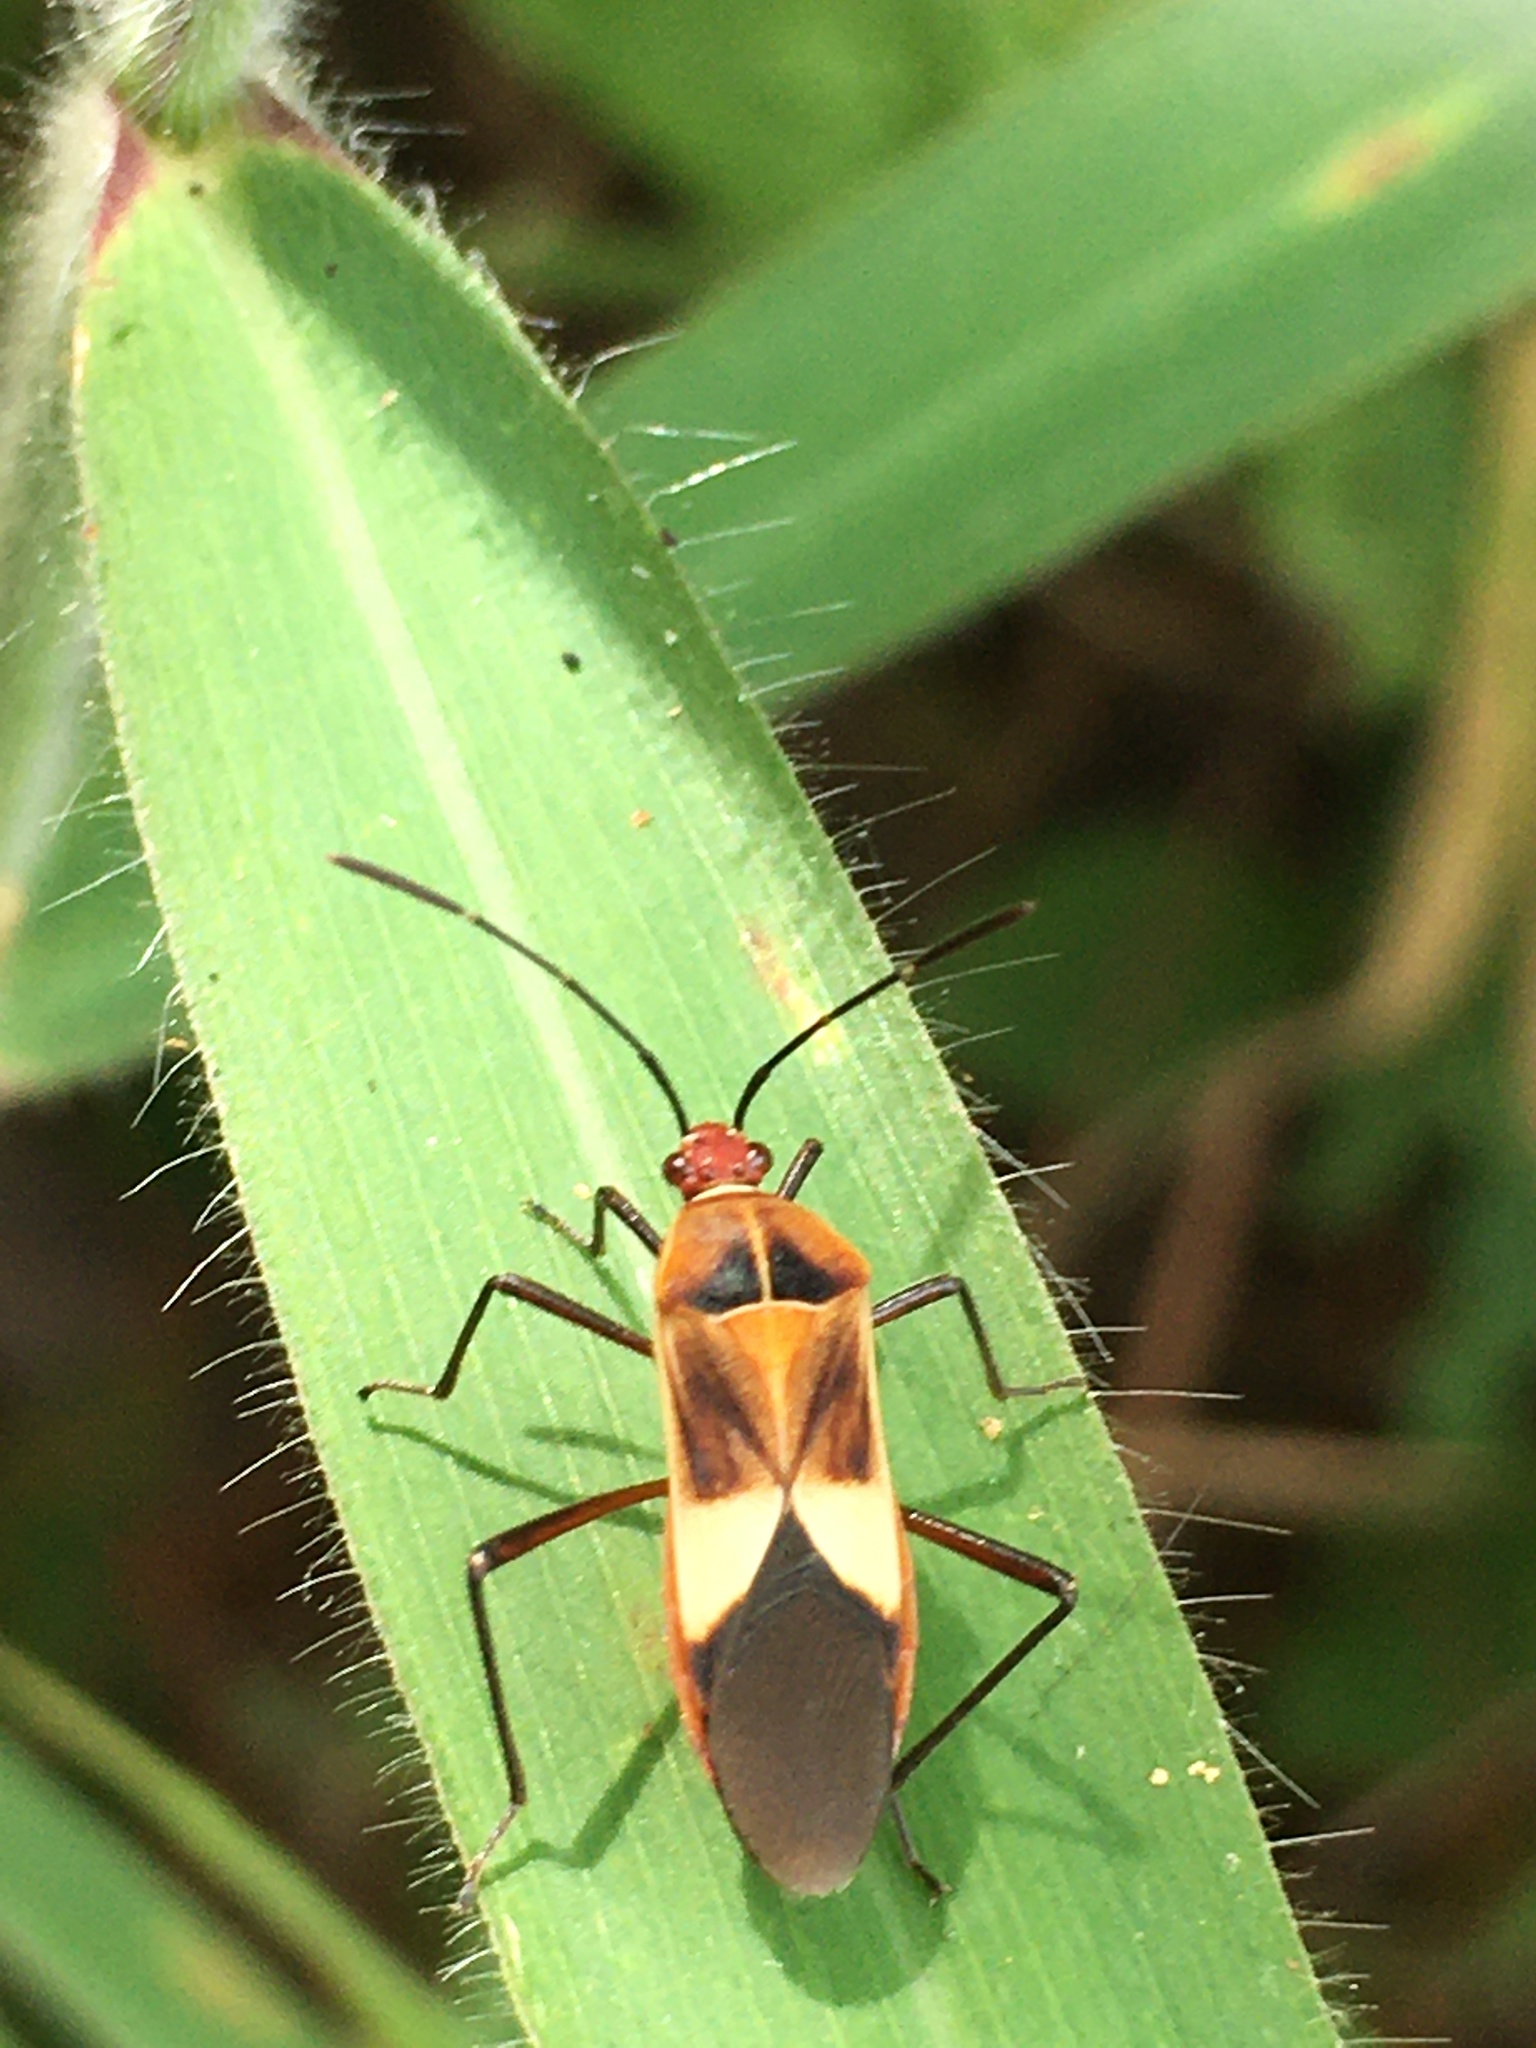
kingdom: Animalia
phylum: Arthropoda
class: Insecta
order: Hemiptera
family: Coreidae
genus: Hypselonotus
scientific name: Hypselonotus interruptus
